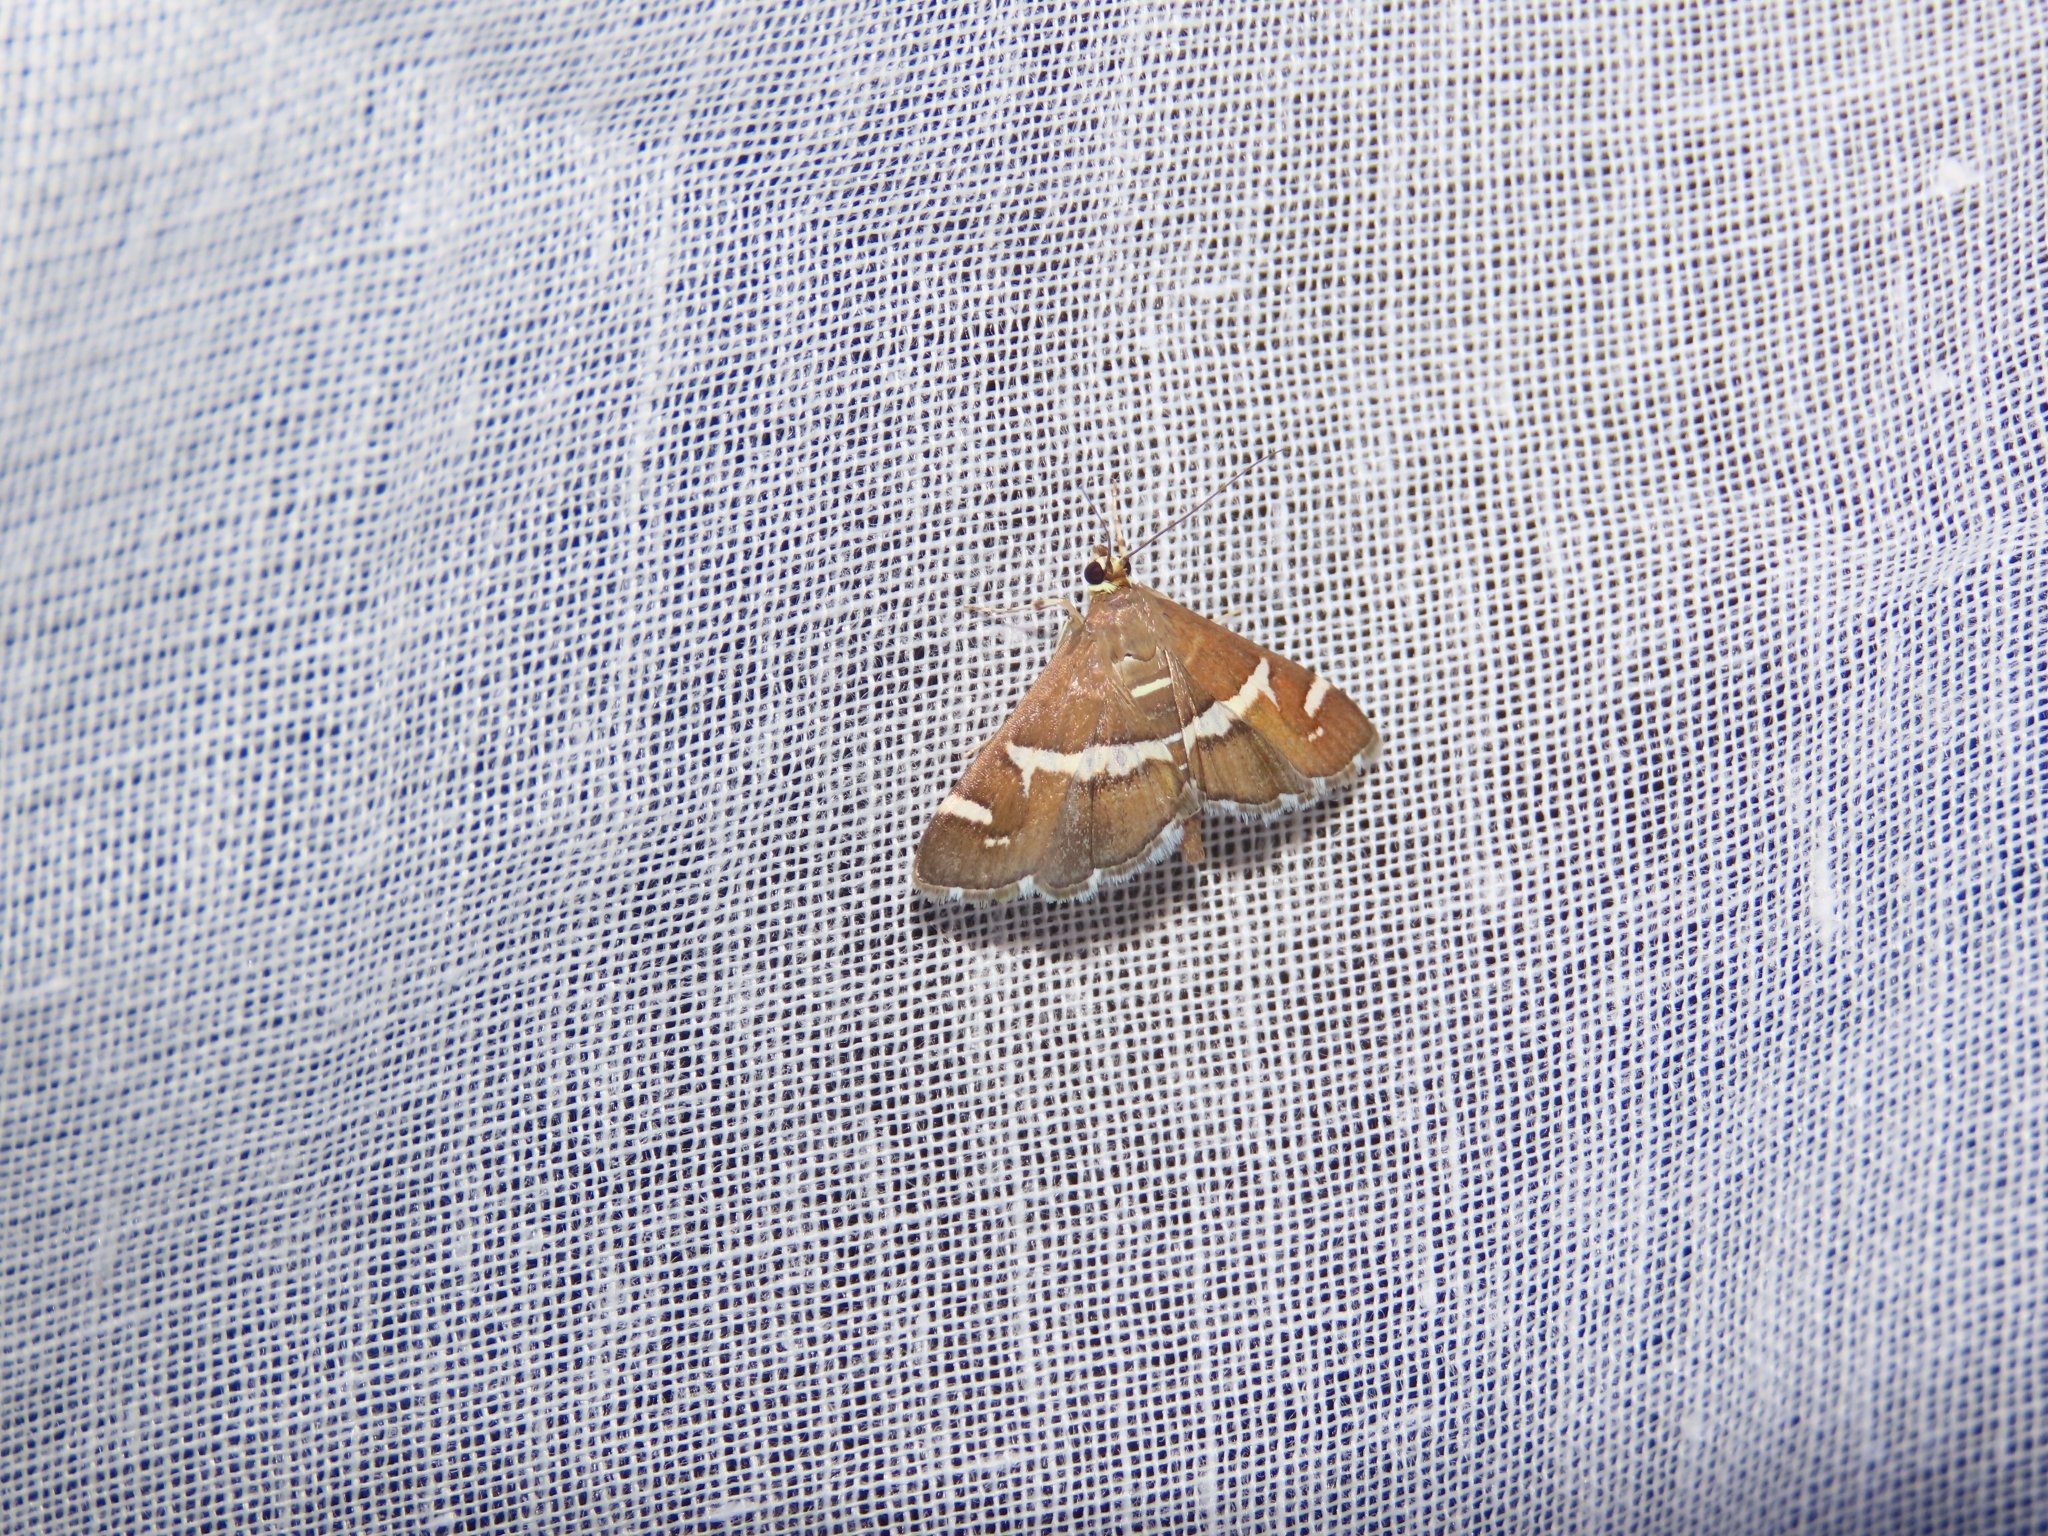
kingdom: Animalia
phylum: Arthropoda
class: Insecta
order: Lepidoptera
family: Crambidae
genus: Spoladea
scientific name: Spoladea recurvalis
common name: Beet webworm moth
